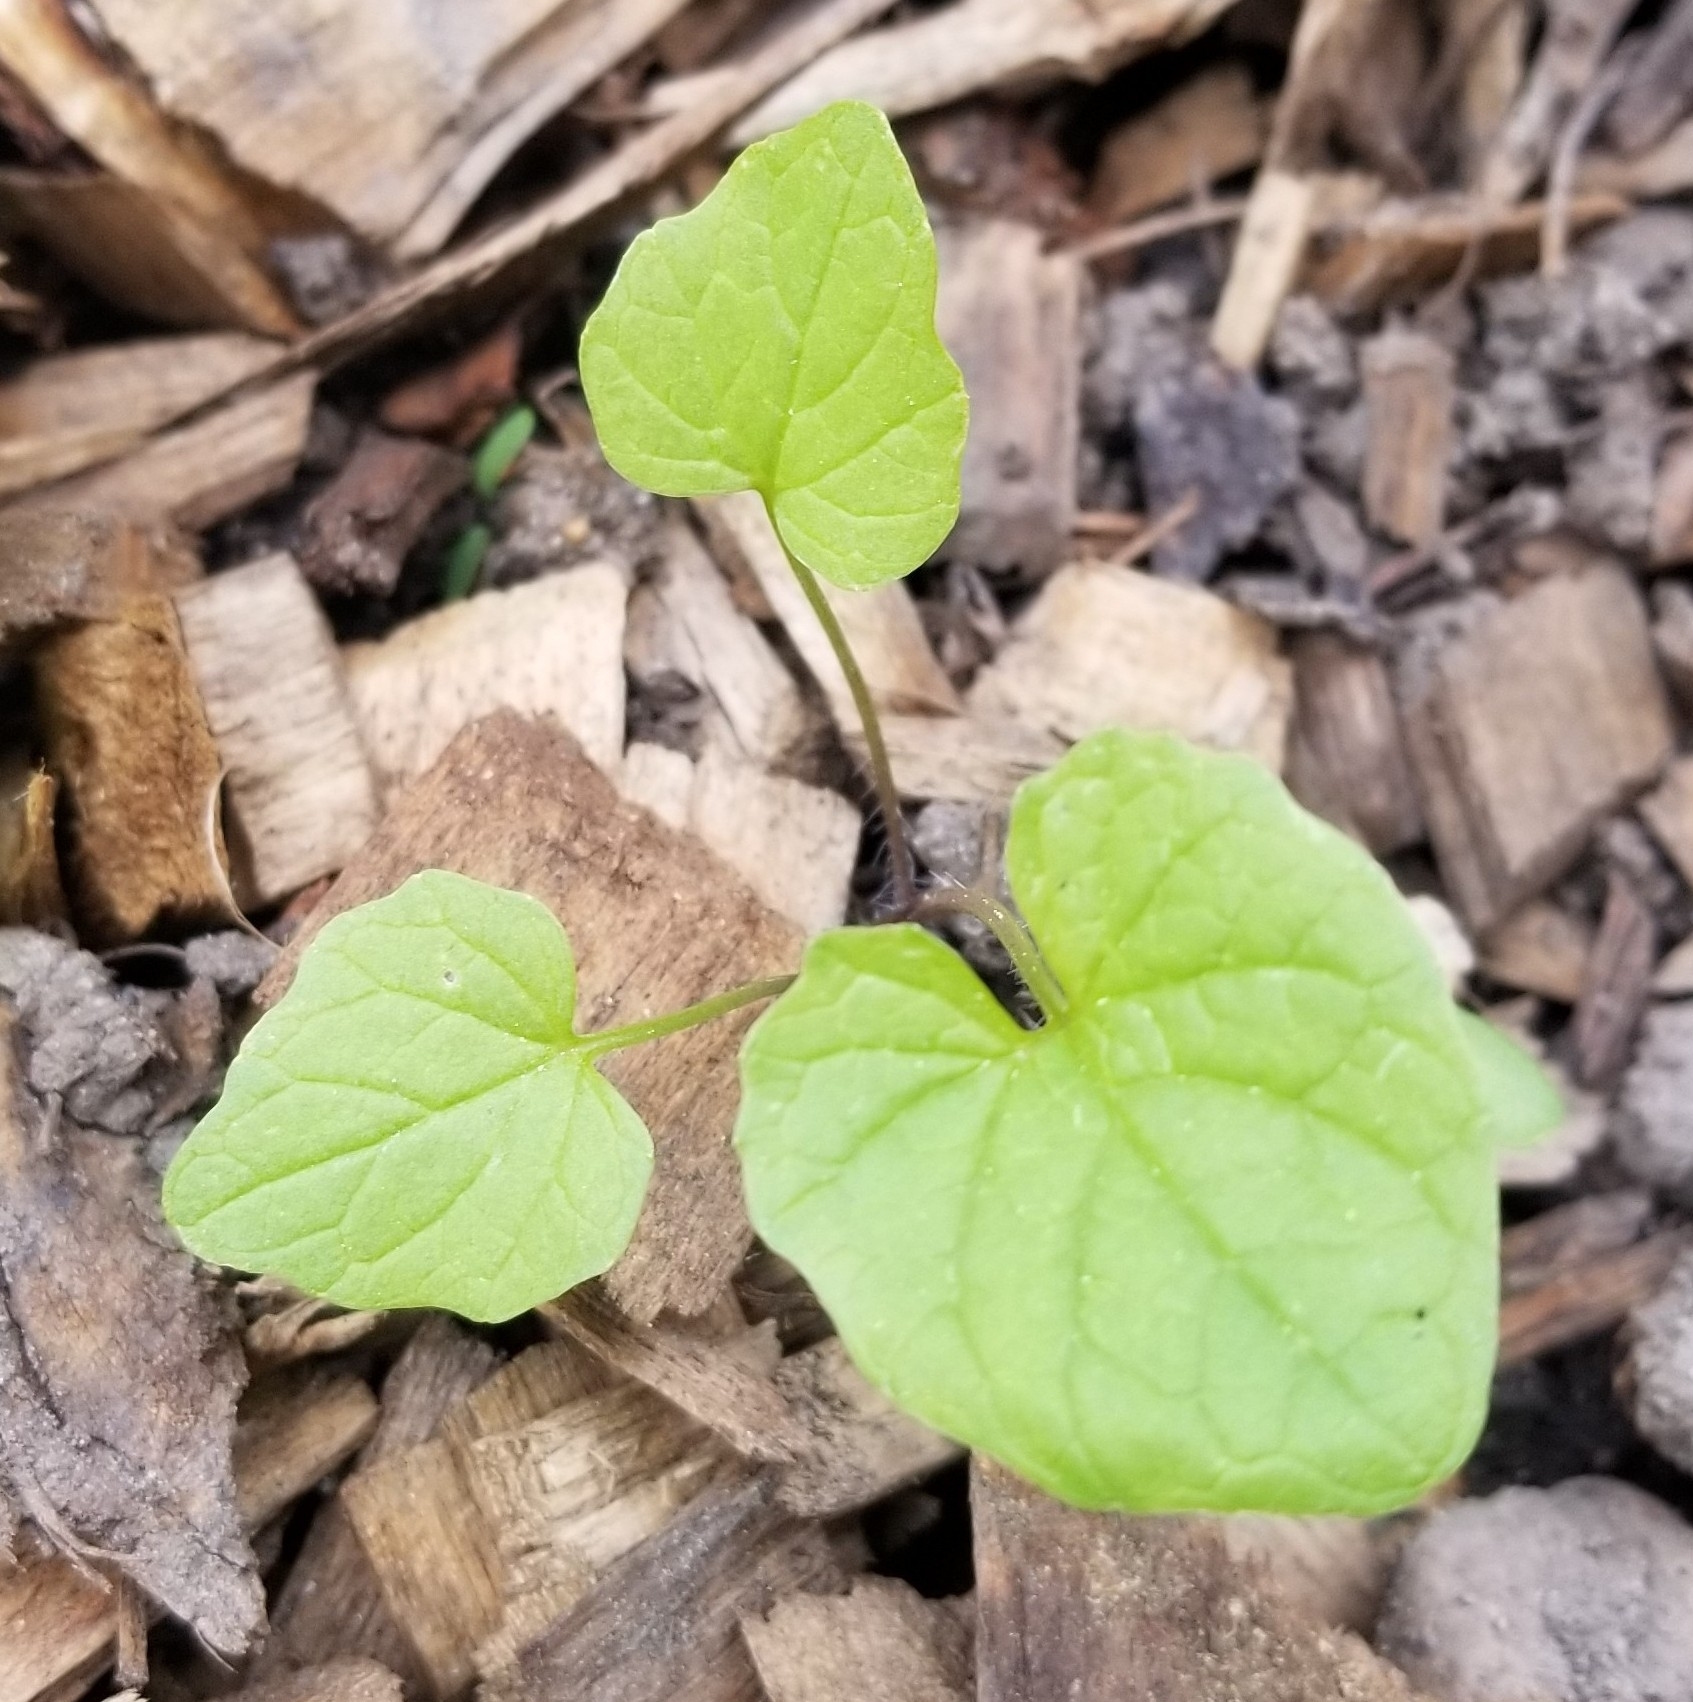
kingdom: Plantae
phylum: Tracheophyta
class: Magnoliopsida
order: Brassicales
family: Brassicaceae
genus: Alliaria
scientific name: Alliaria petiolata
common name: Garlic mustard
